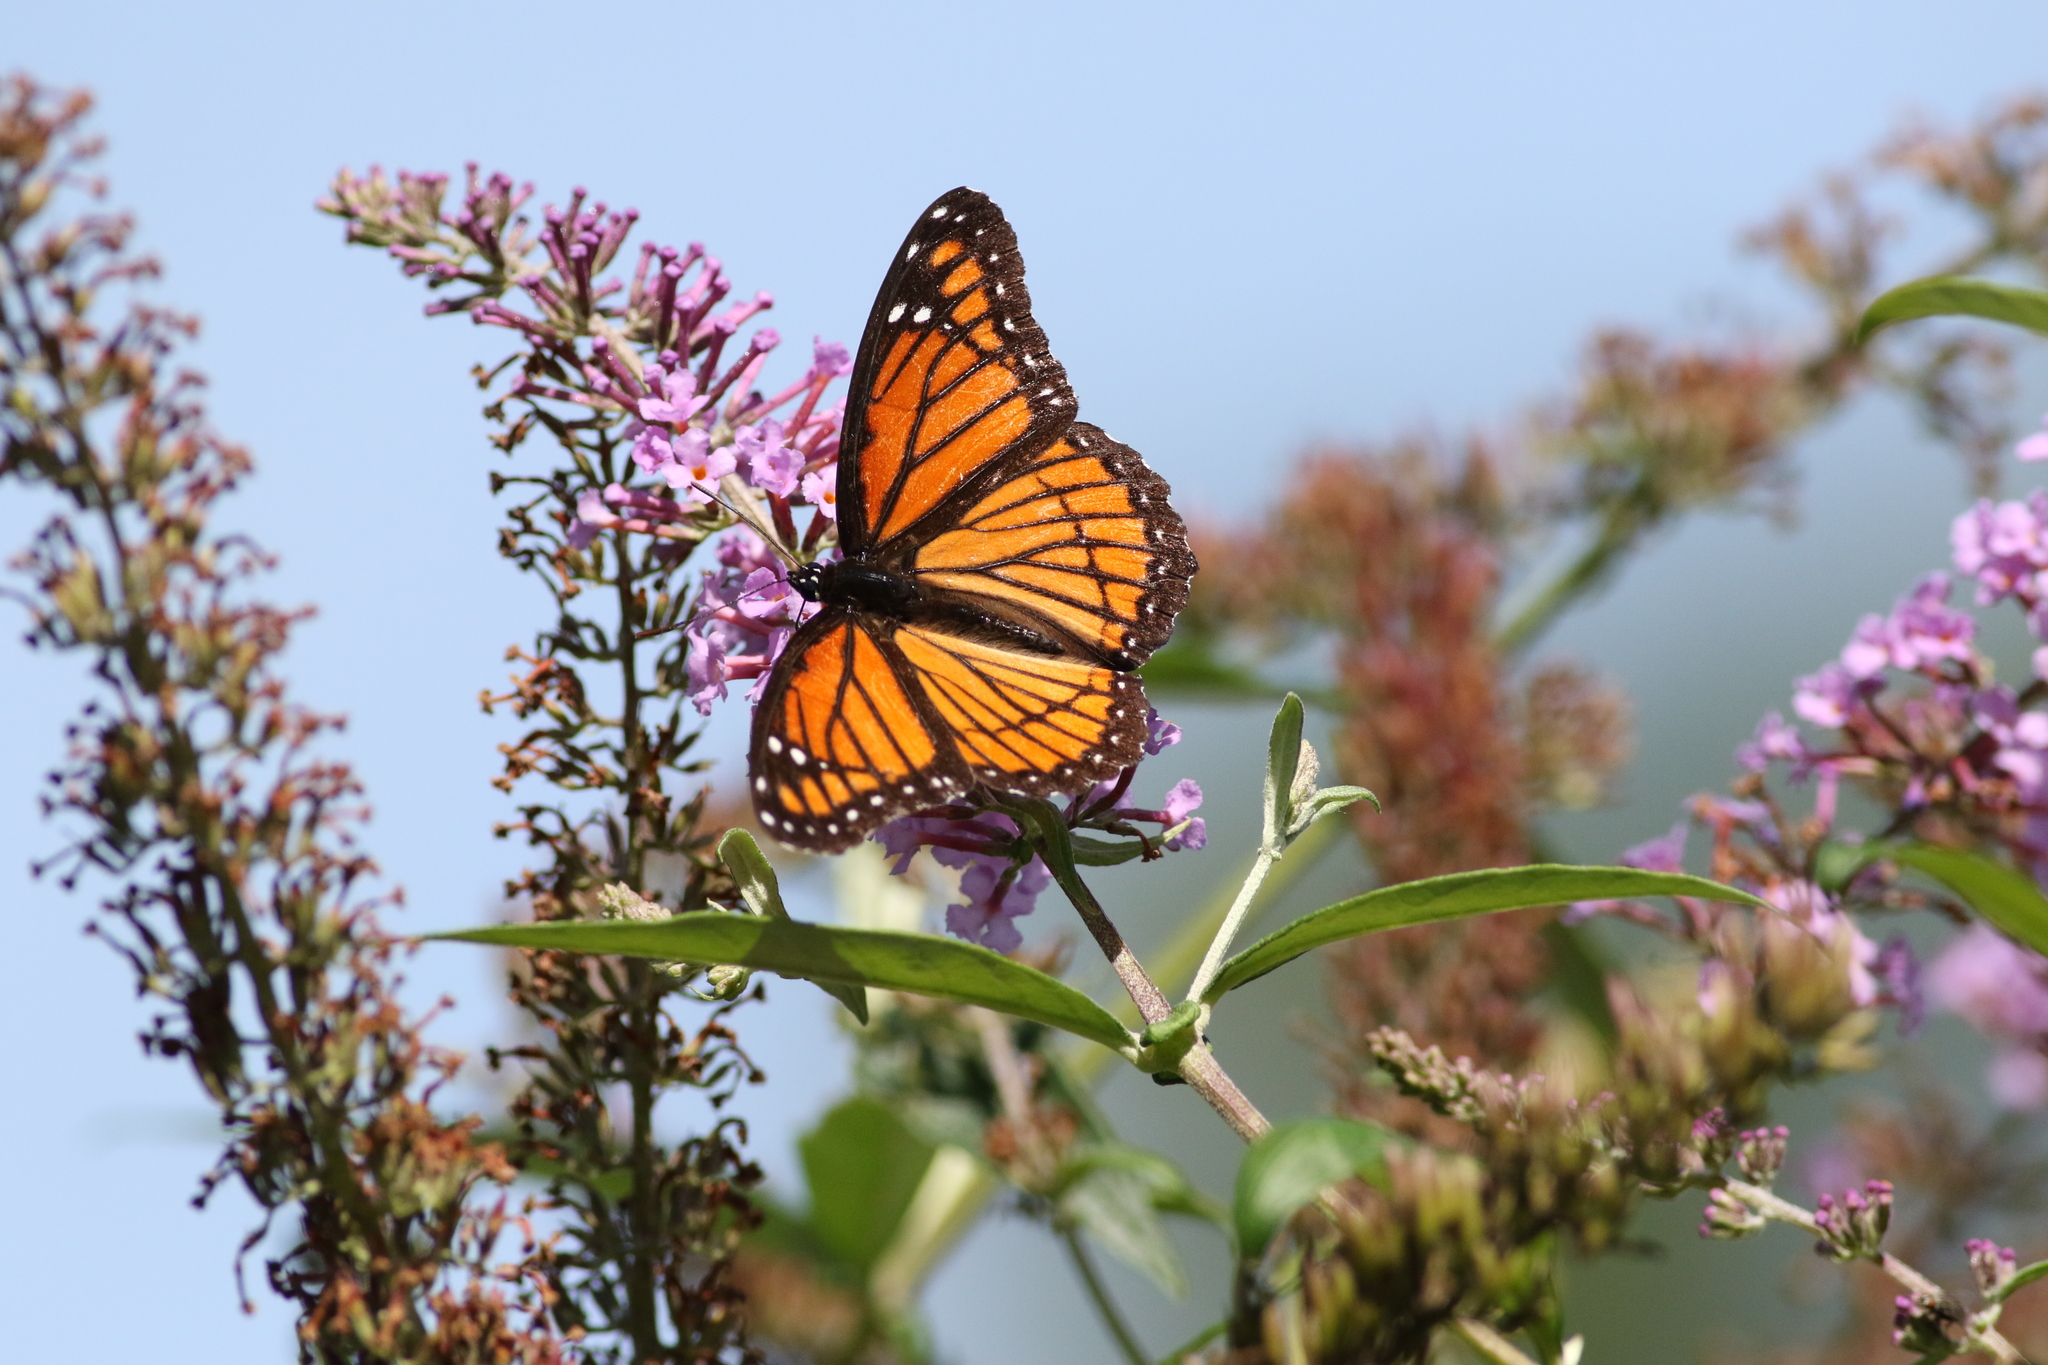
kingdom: Animalia
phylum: Arthropoda
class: Insecta
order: Lepidoptera
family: Nymphalidae
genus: Limenitis
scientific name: Limenitis archippus
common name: Viceroy
